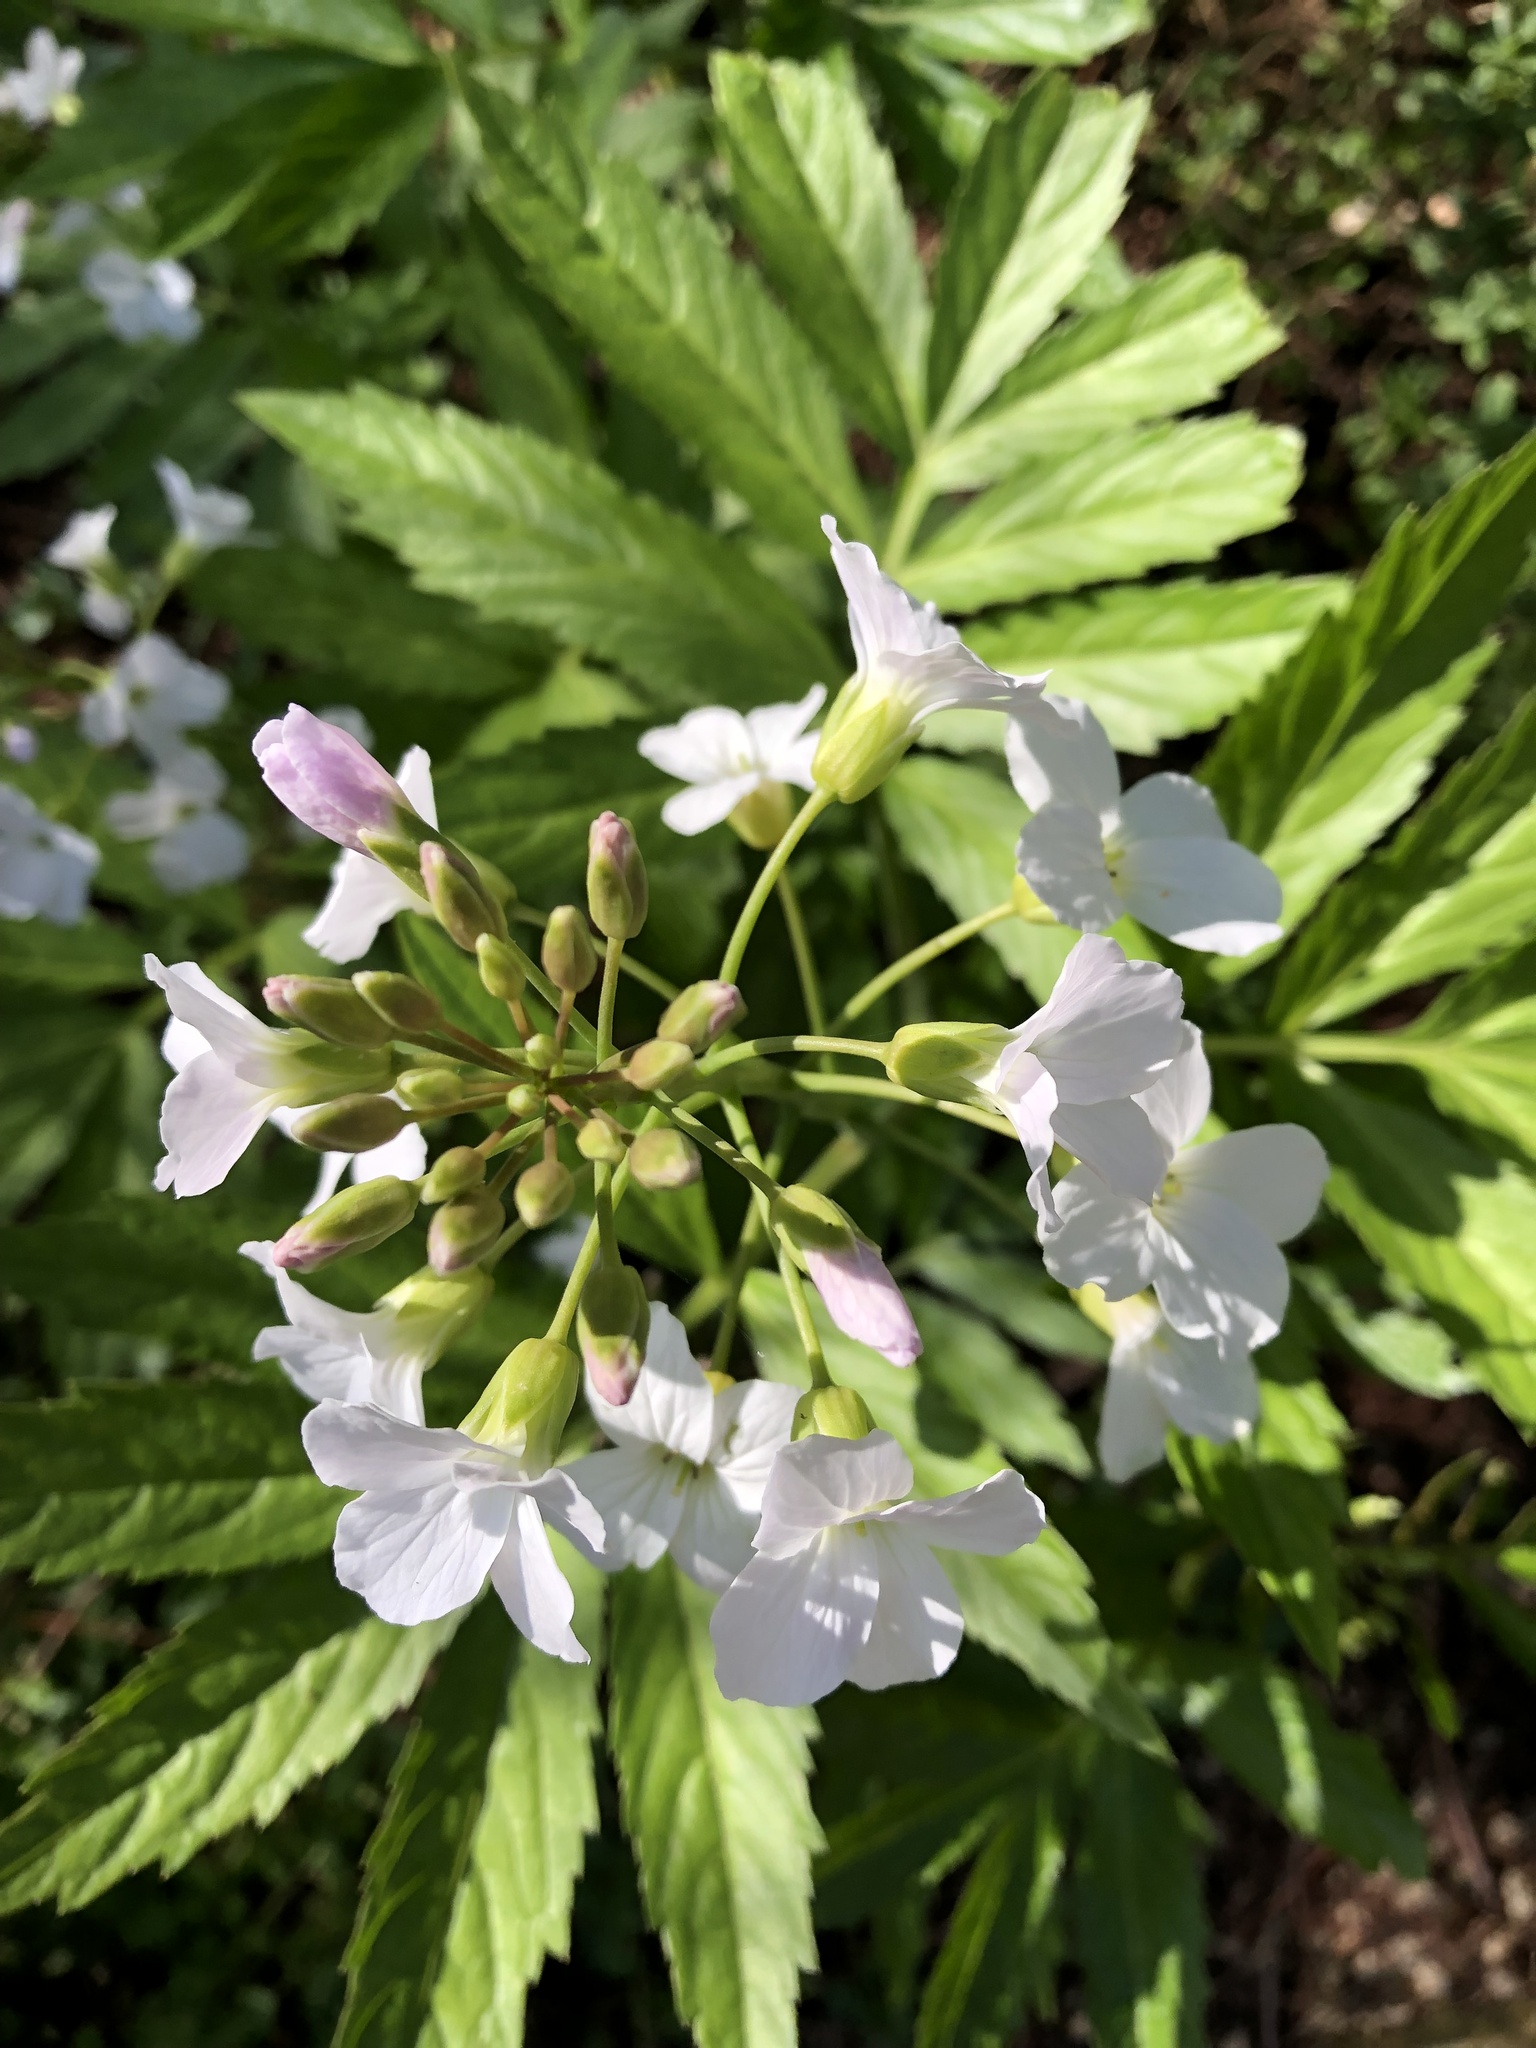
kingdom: Plantae
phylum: Tracheophyta
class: Magnoliopsida
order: Brassicales
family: Brassicaceae
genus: Cardamine
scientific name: Cardamine heptaphylla
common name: Pinnate coralroot
